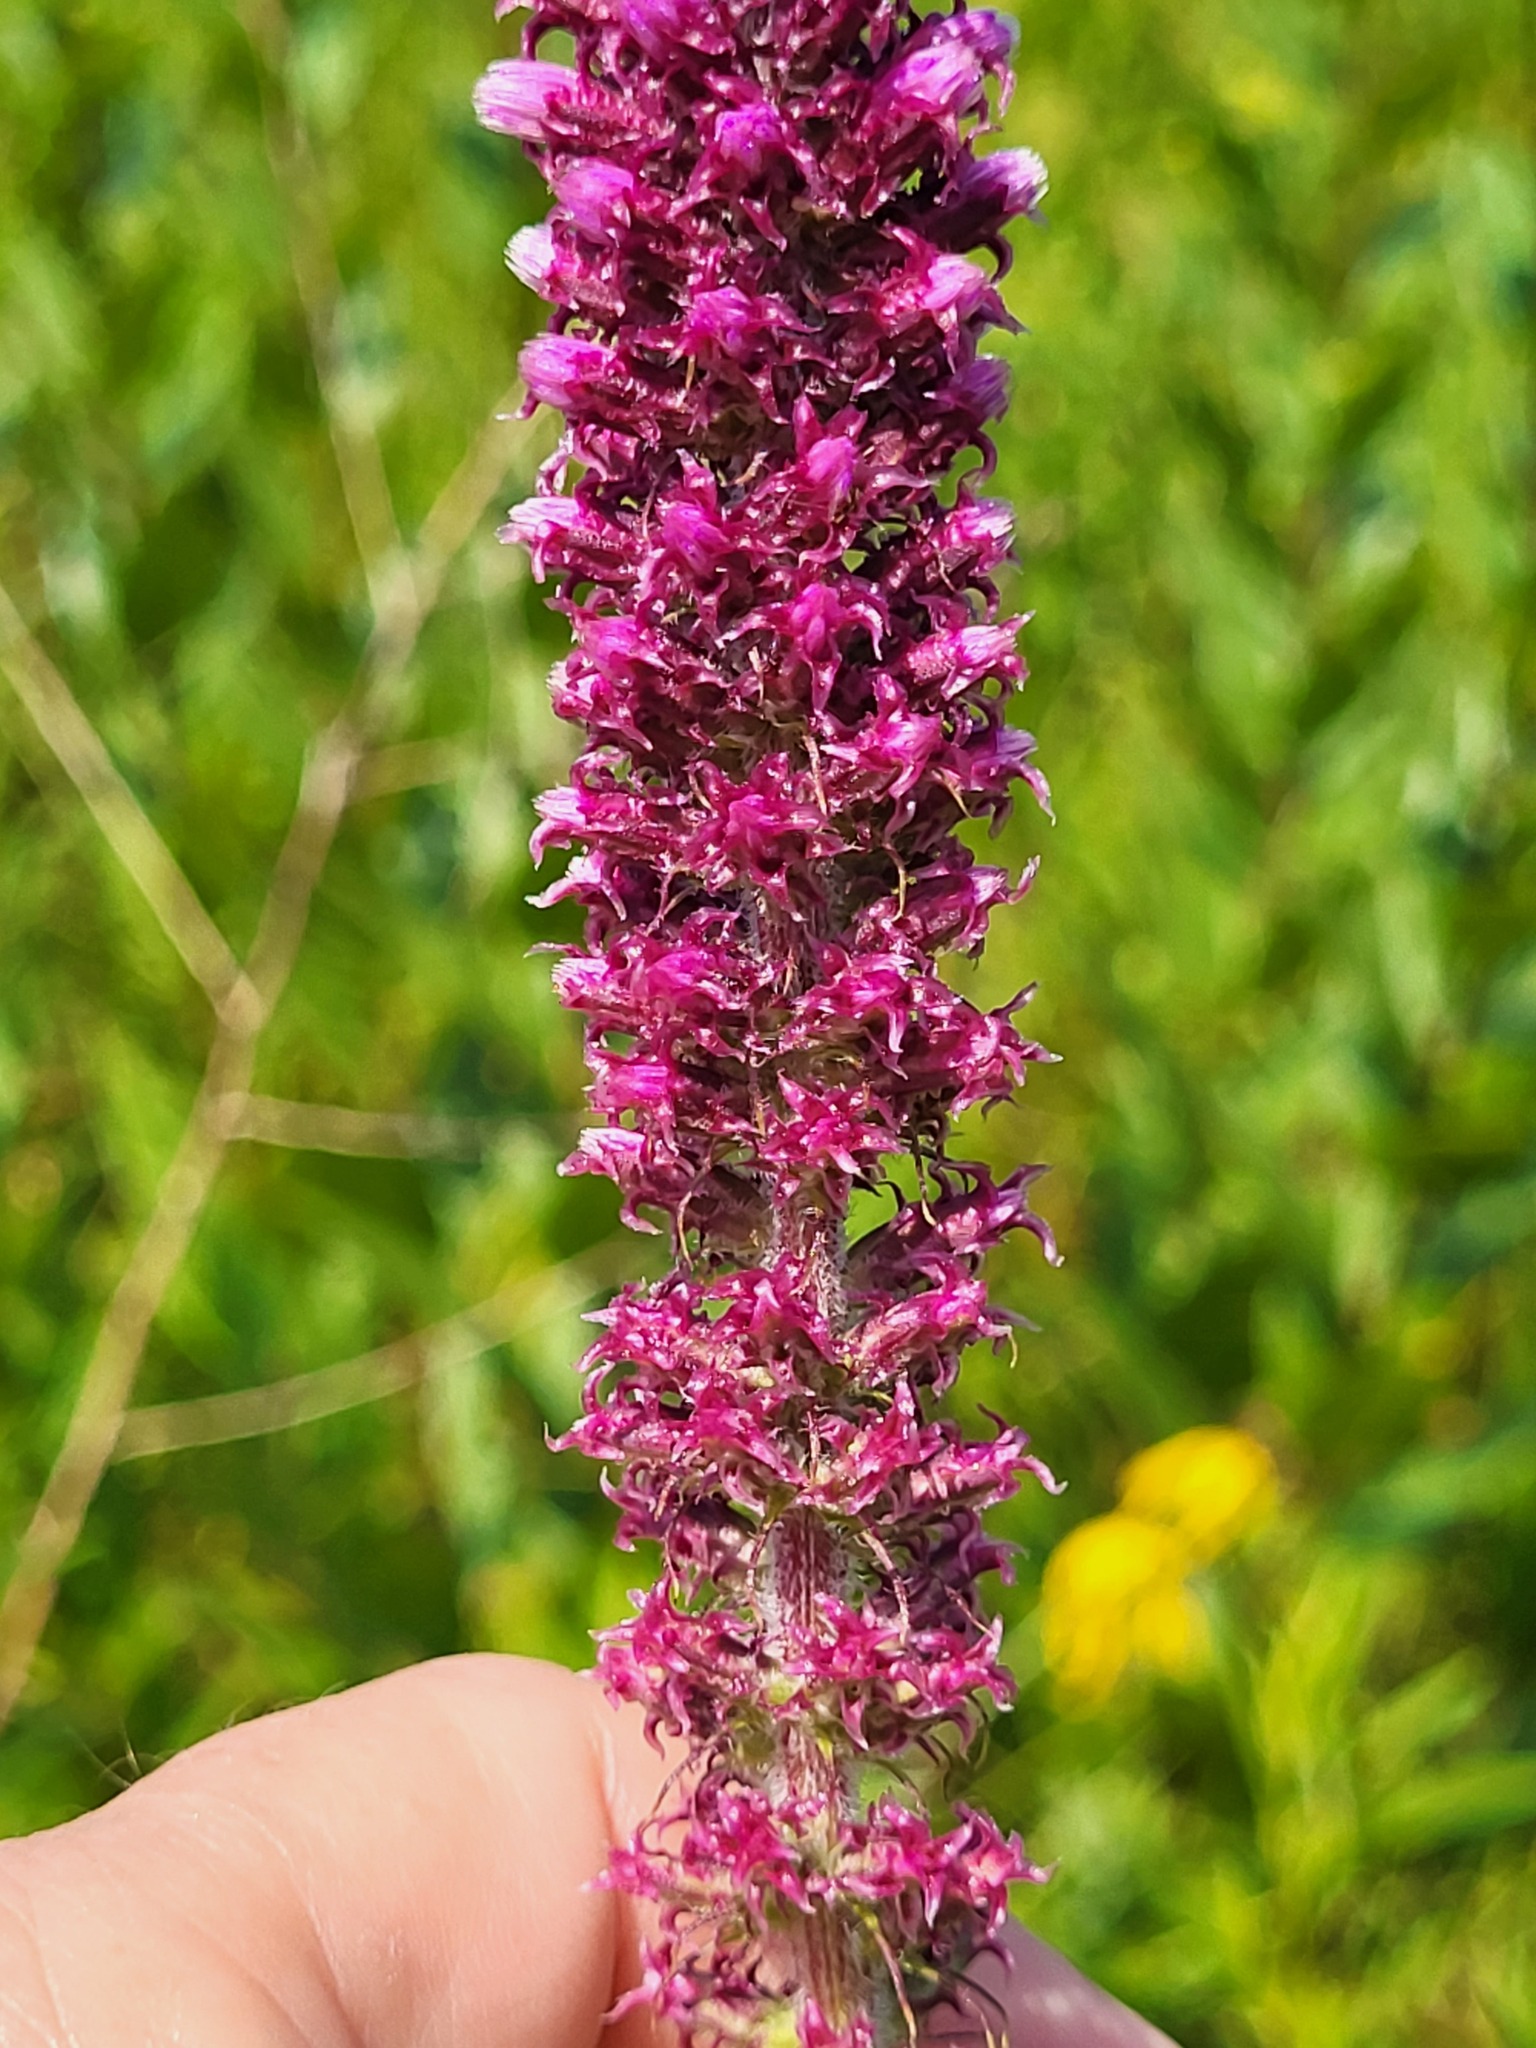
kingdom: Plantae
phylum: Tracheophyta
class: Magnoliopsida
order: Asterales
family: Asteraceae
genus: Liatris
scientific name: Liatris pycnostachya
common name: Cattail gayfeather
